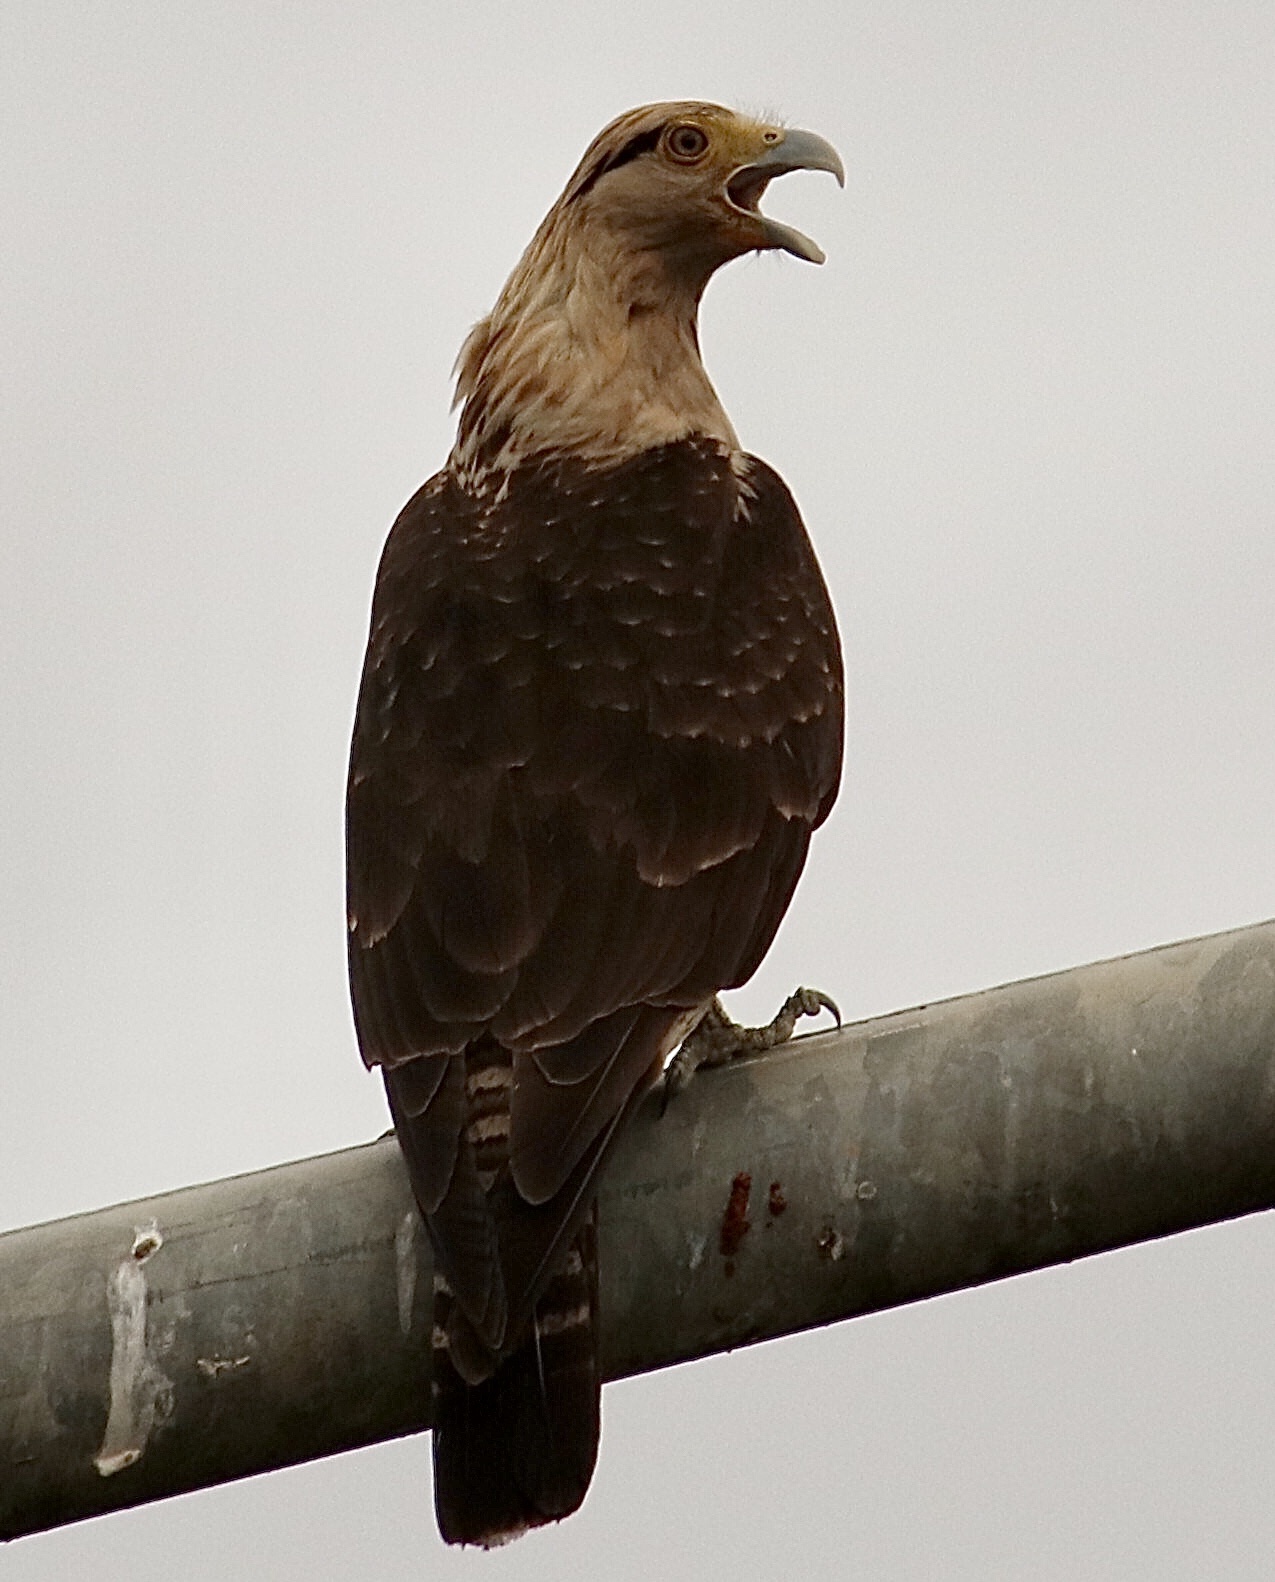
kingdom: Animalia
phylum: Chordata
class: Aves
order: Falconiformes
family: Falconidae
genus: Daptrius
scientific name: Daptrius
